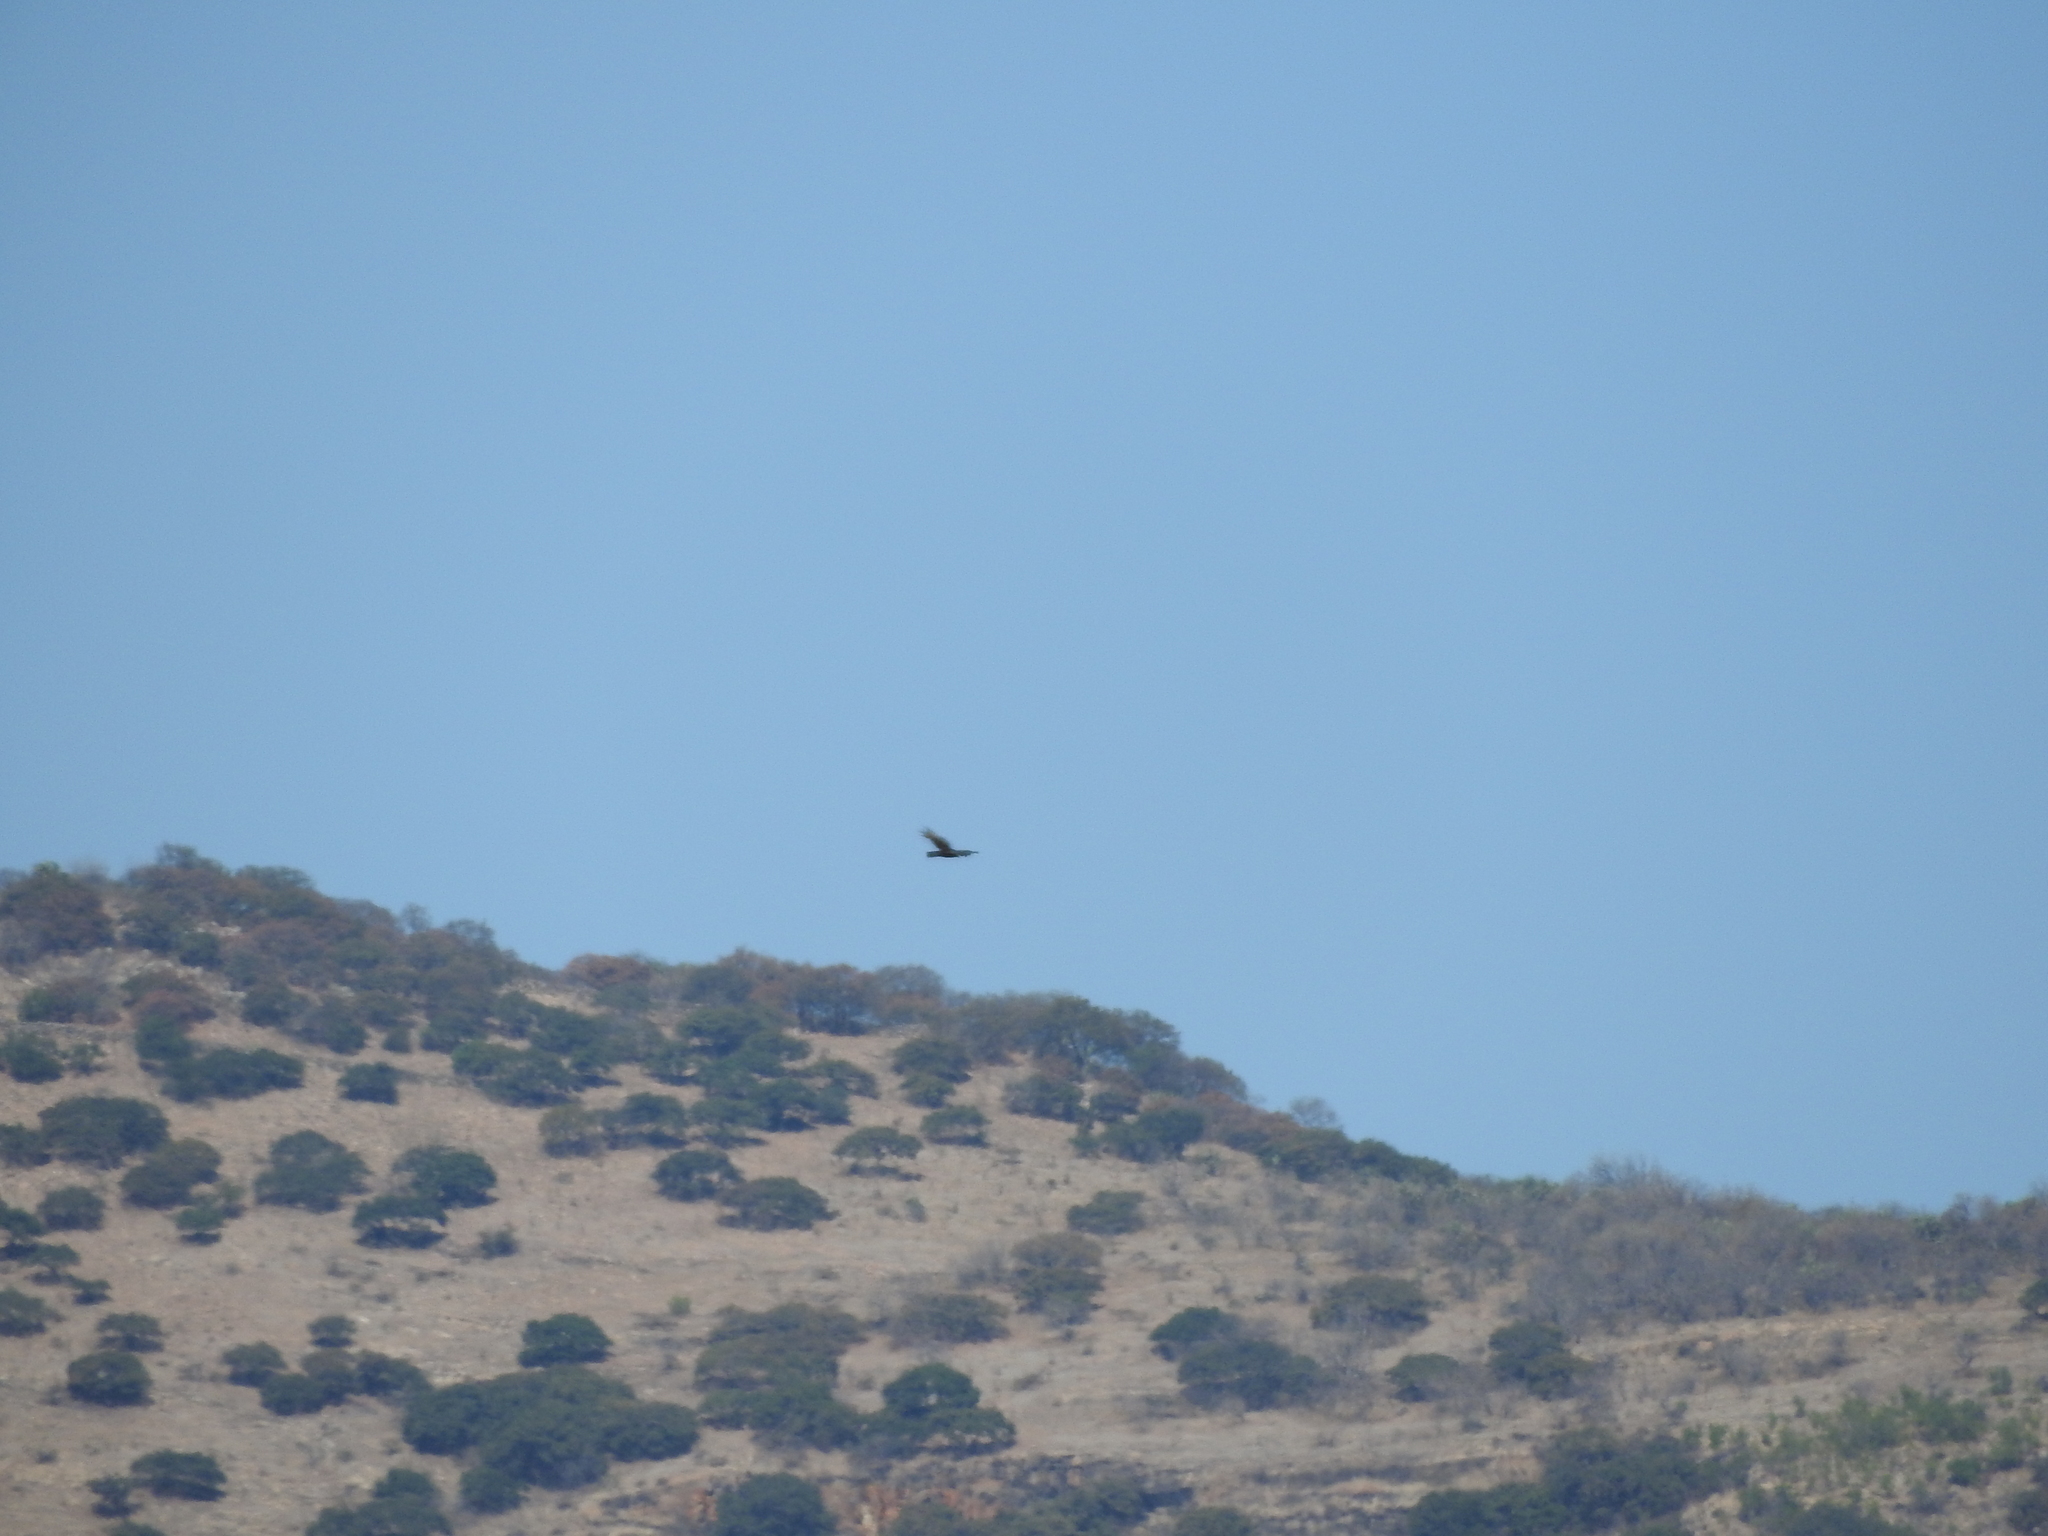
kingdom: Animalia
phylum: Chordata
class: Aves
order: Accipitriformes
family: Accipitridae
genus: Buteo
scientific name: Buteo albonotatus
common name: Zone-tailed hawk
